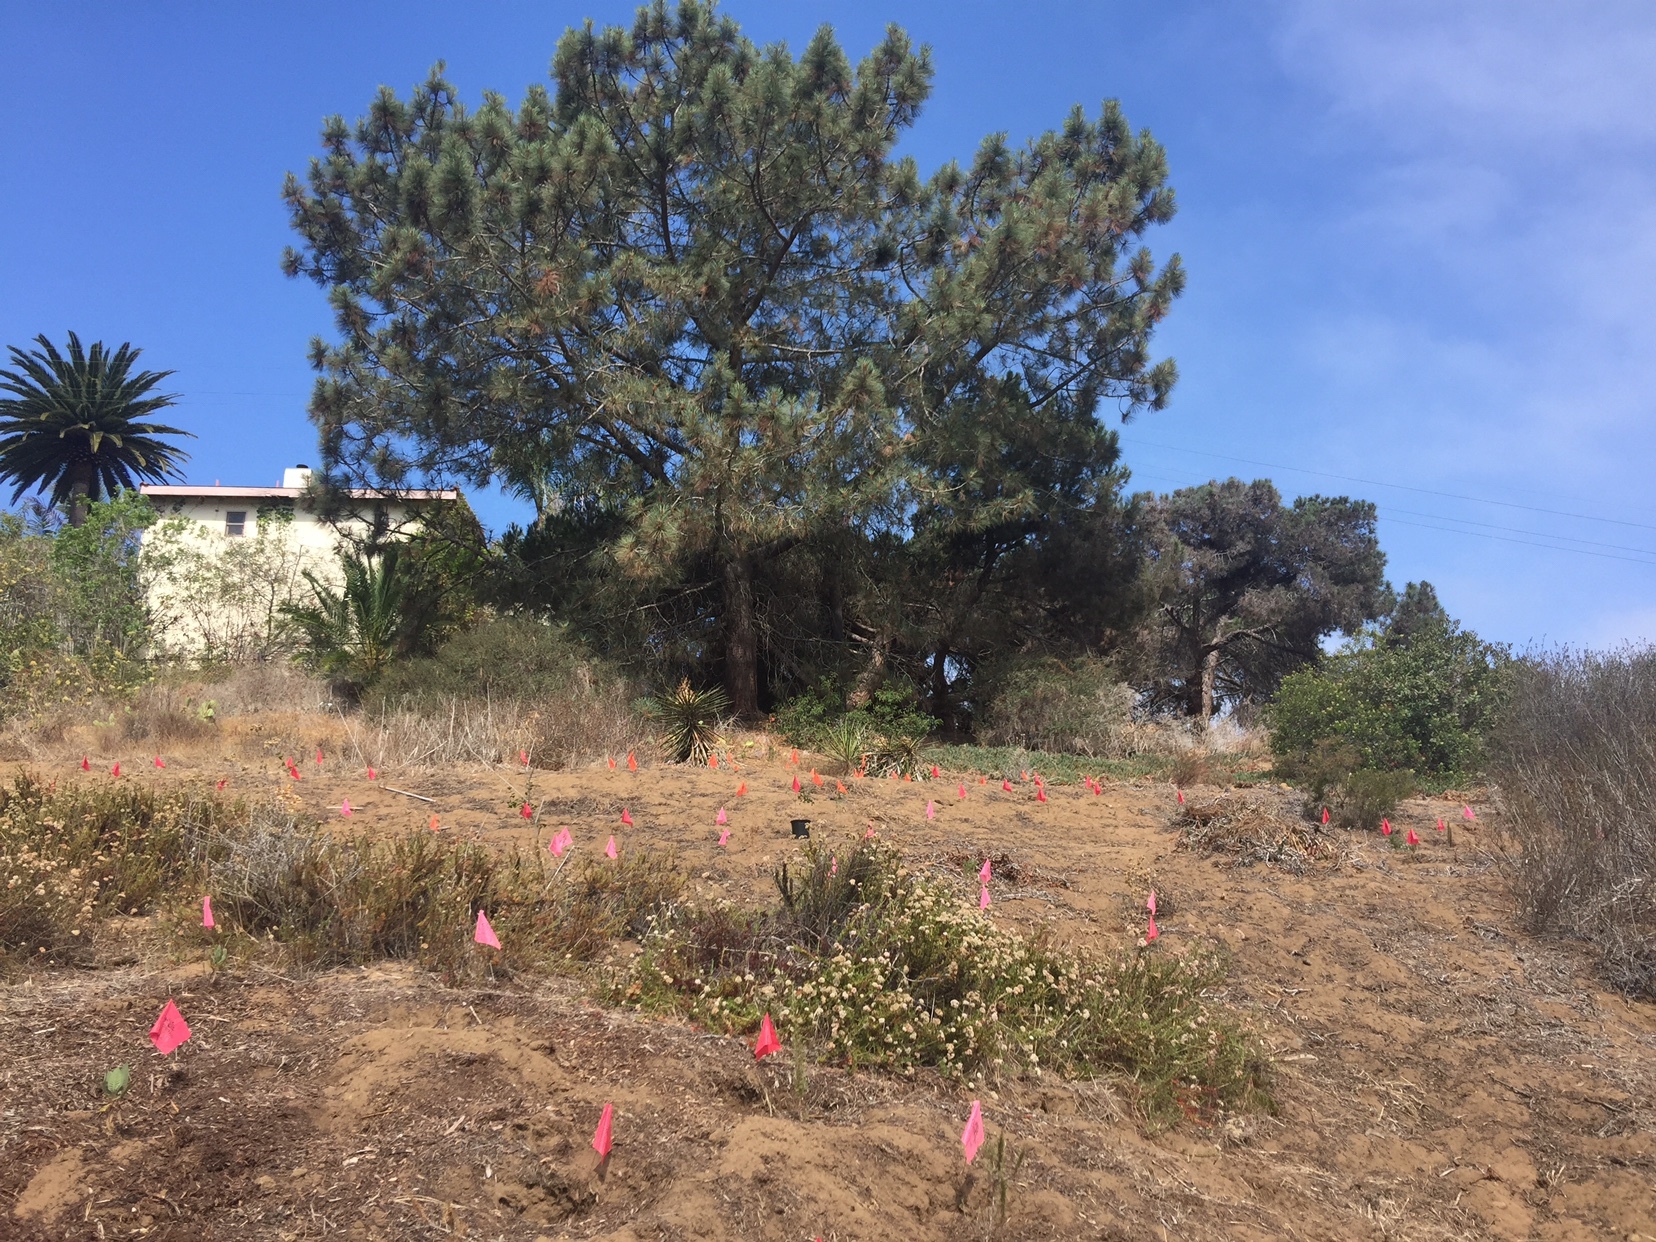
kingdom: Plantae
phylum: Tracheophyta
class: Liliopsida
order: Asparagales
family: Asparagaceae
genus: Yucca
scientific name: Yucca schidigera
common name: Mojave yucca
